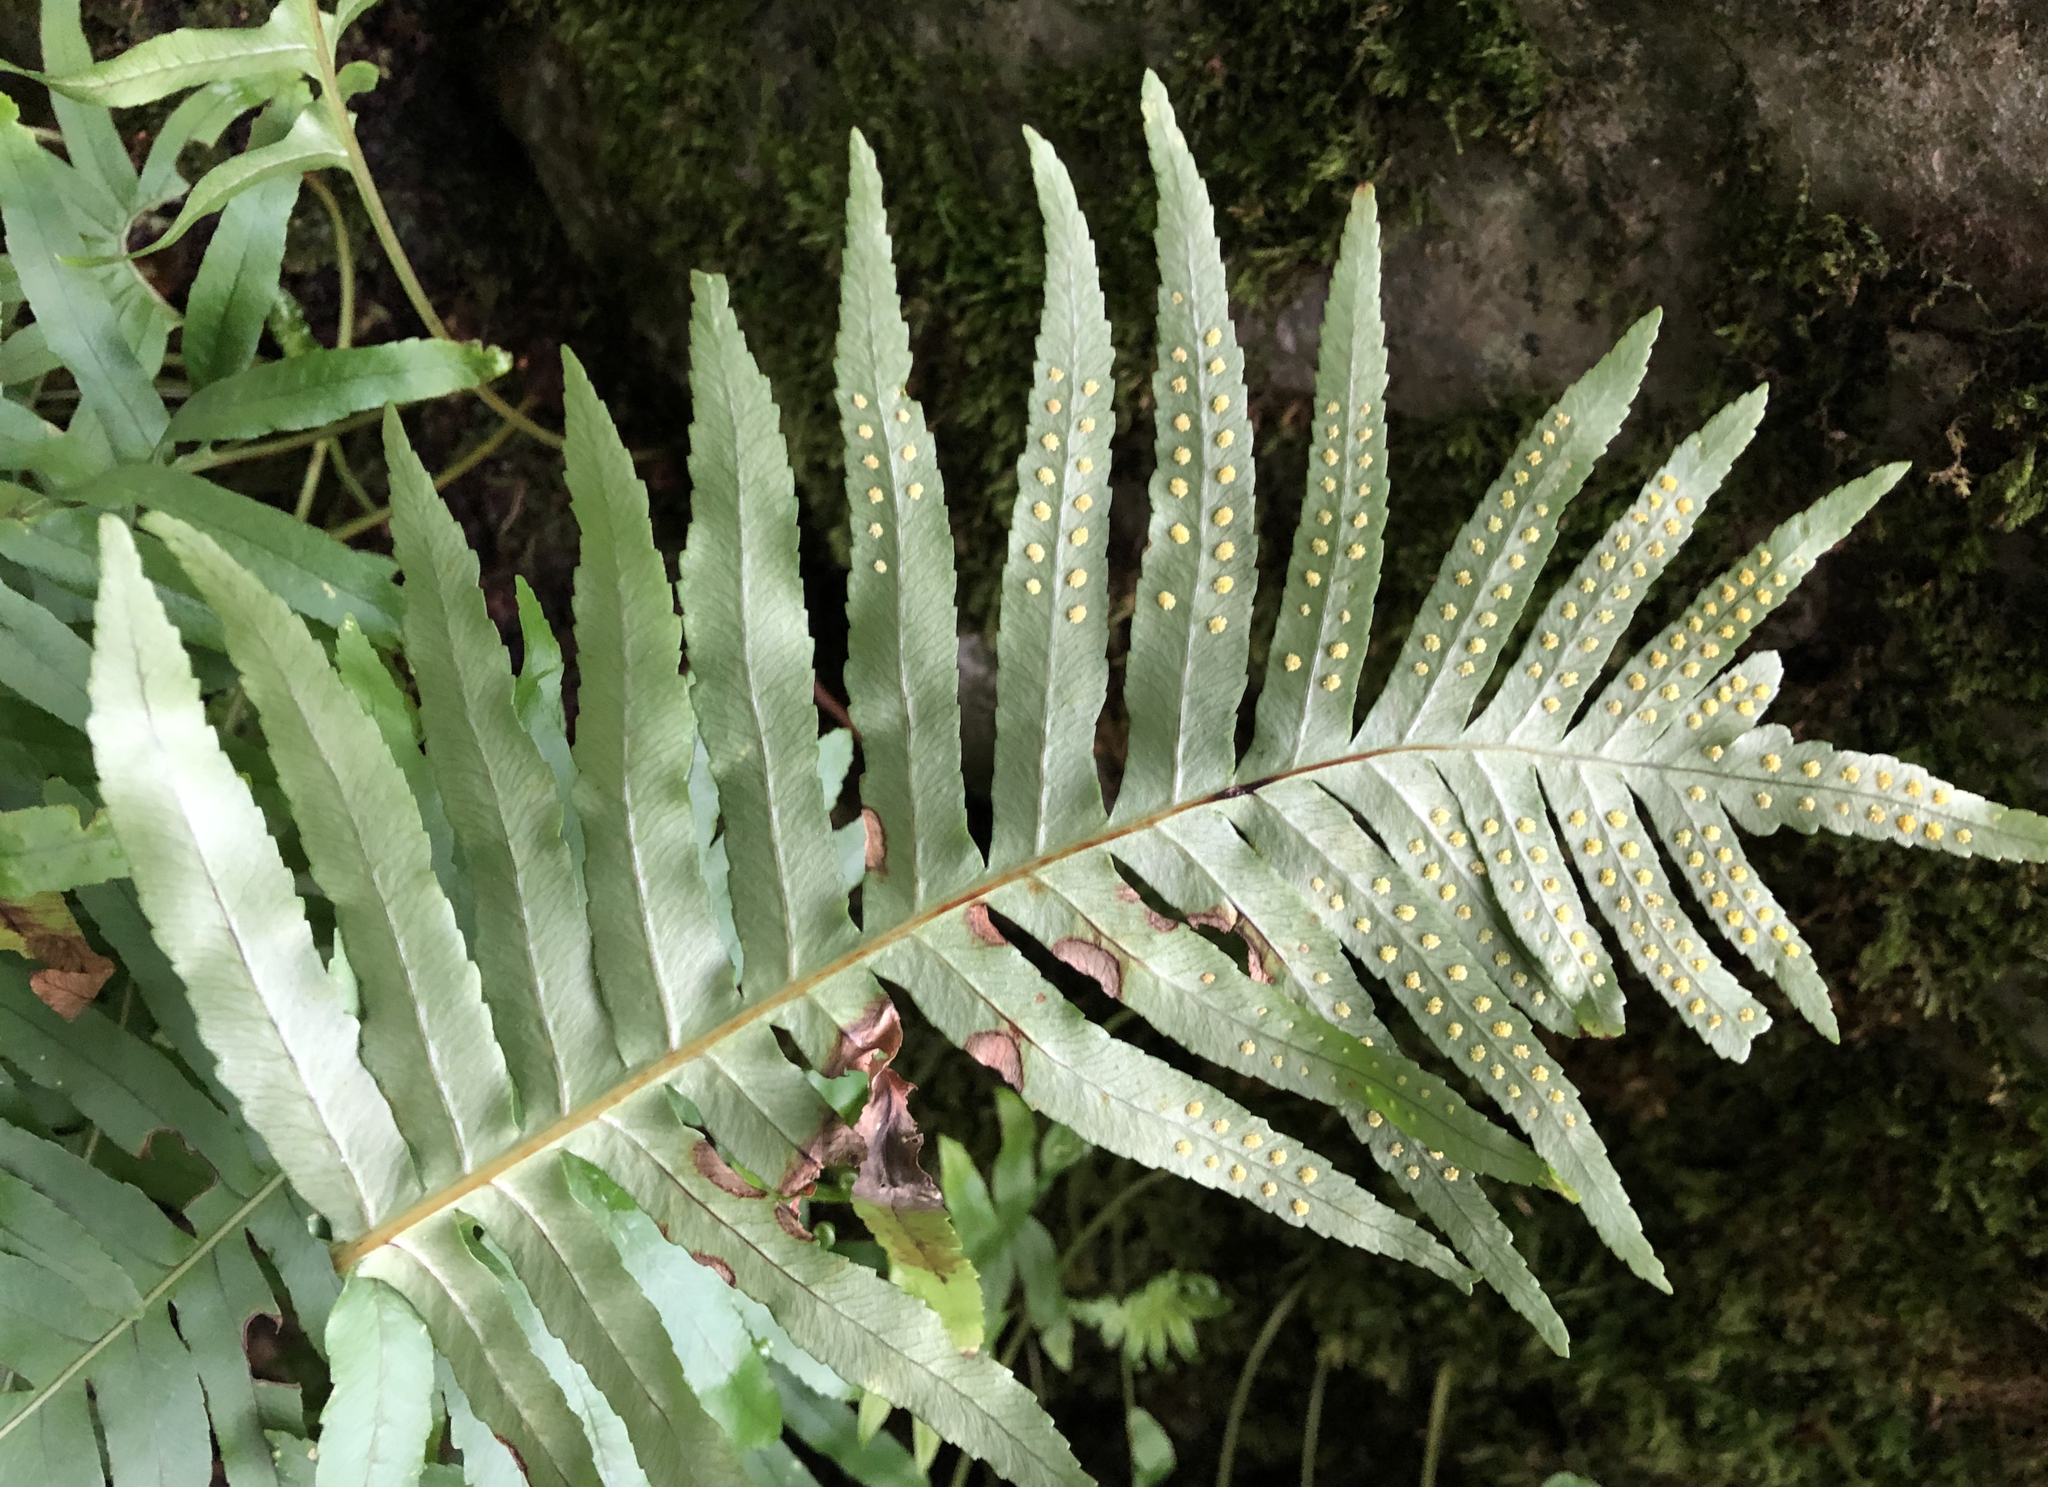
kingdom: Plantae
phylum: Tracheophyta
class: Polypodiopsida
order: Polypodiales
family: Polypodiaceae
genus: Polypodium
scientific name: Polypodium cambricum
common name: Southern polypody
